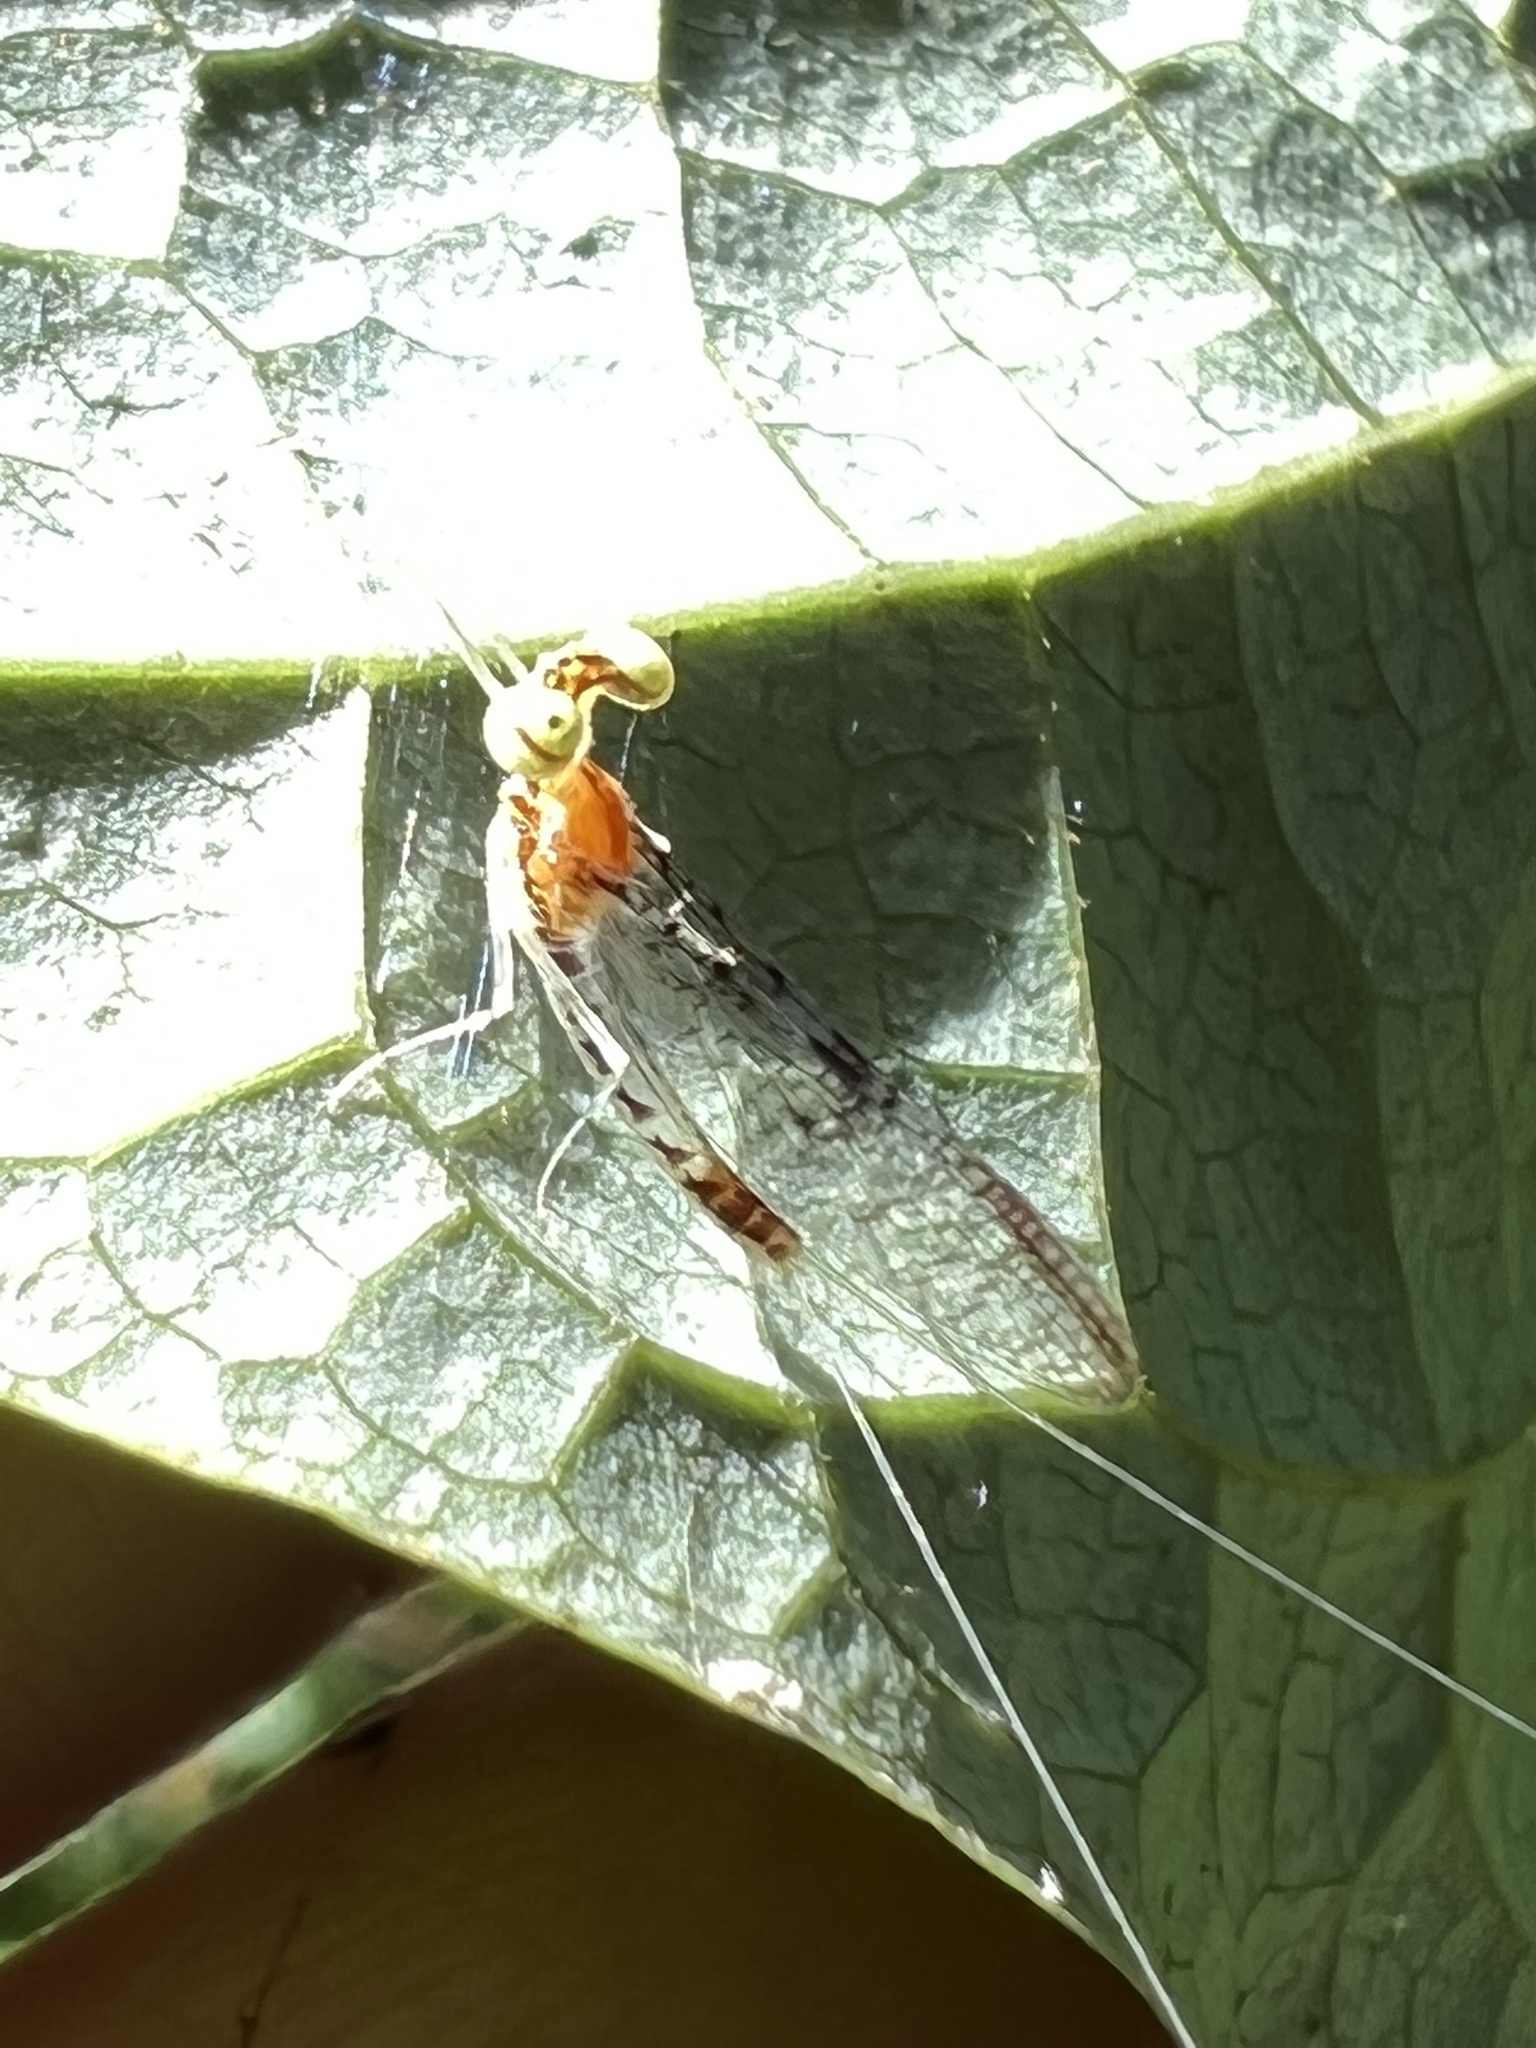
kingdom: Animalia
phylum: Arthropoda
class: Insecta
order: Ephemeroptera
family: Heptageniidae
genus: Leucrocuta
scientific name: Leucrocuta aphrodite
